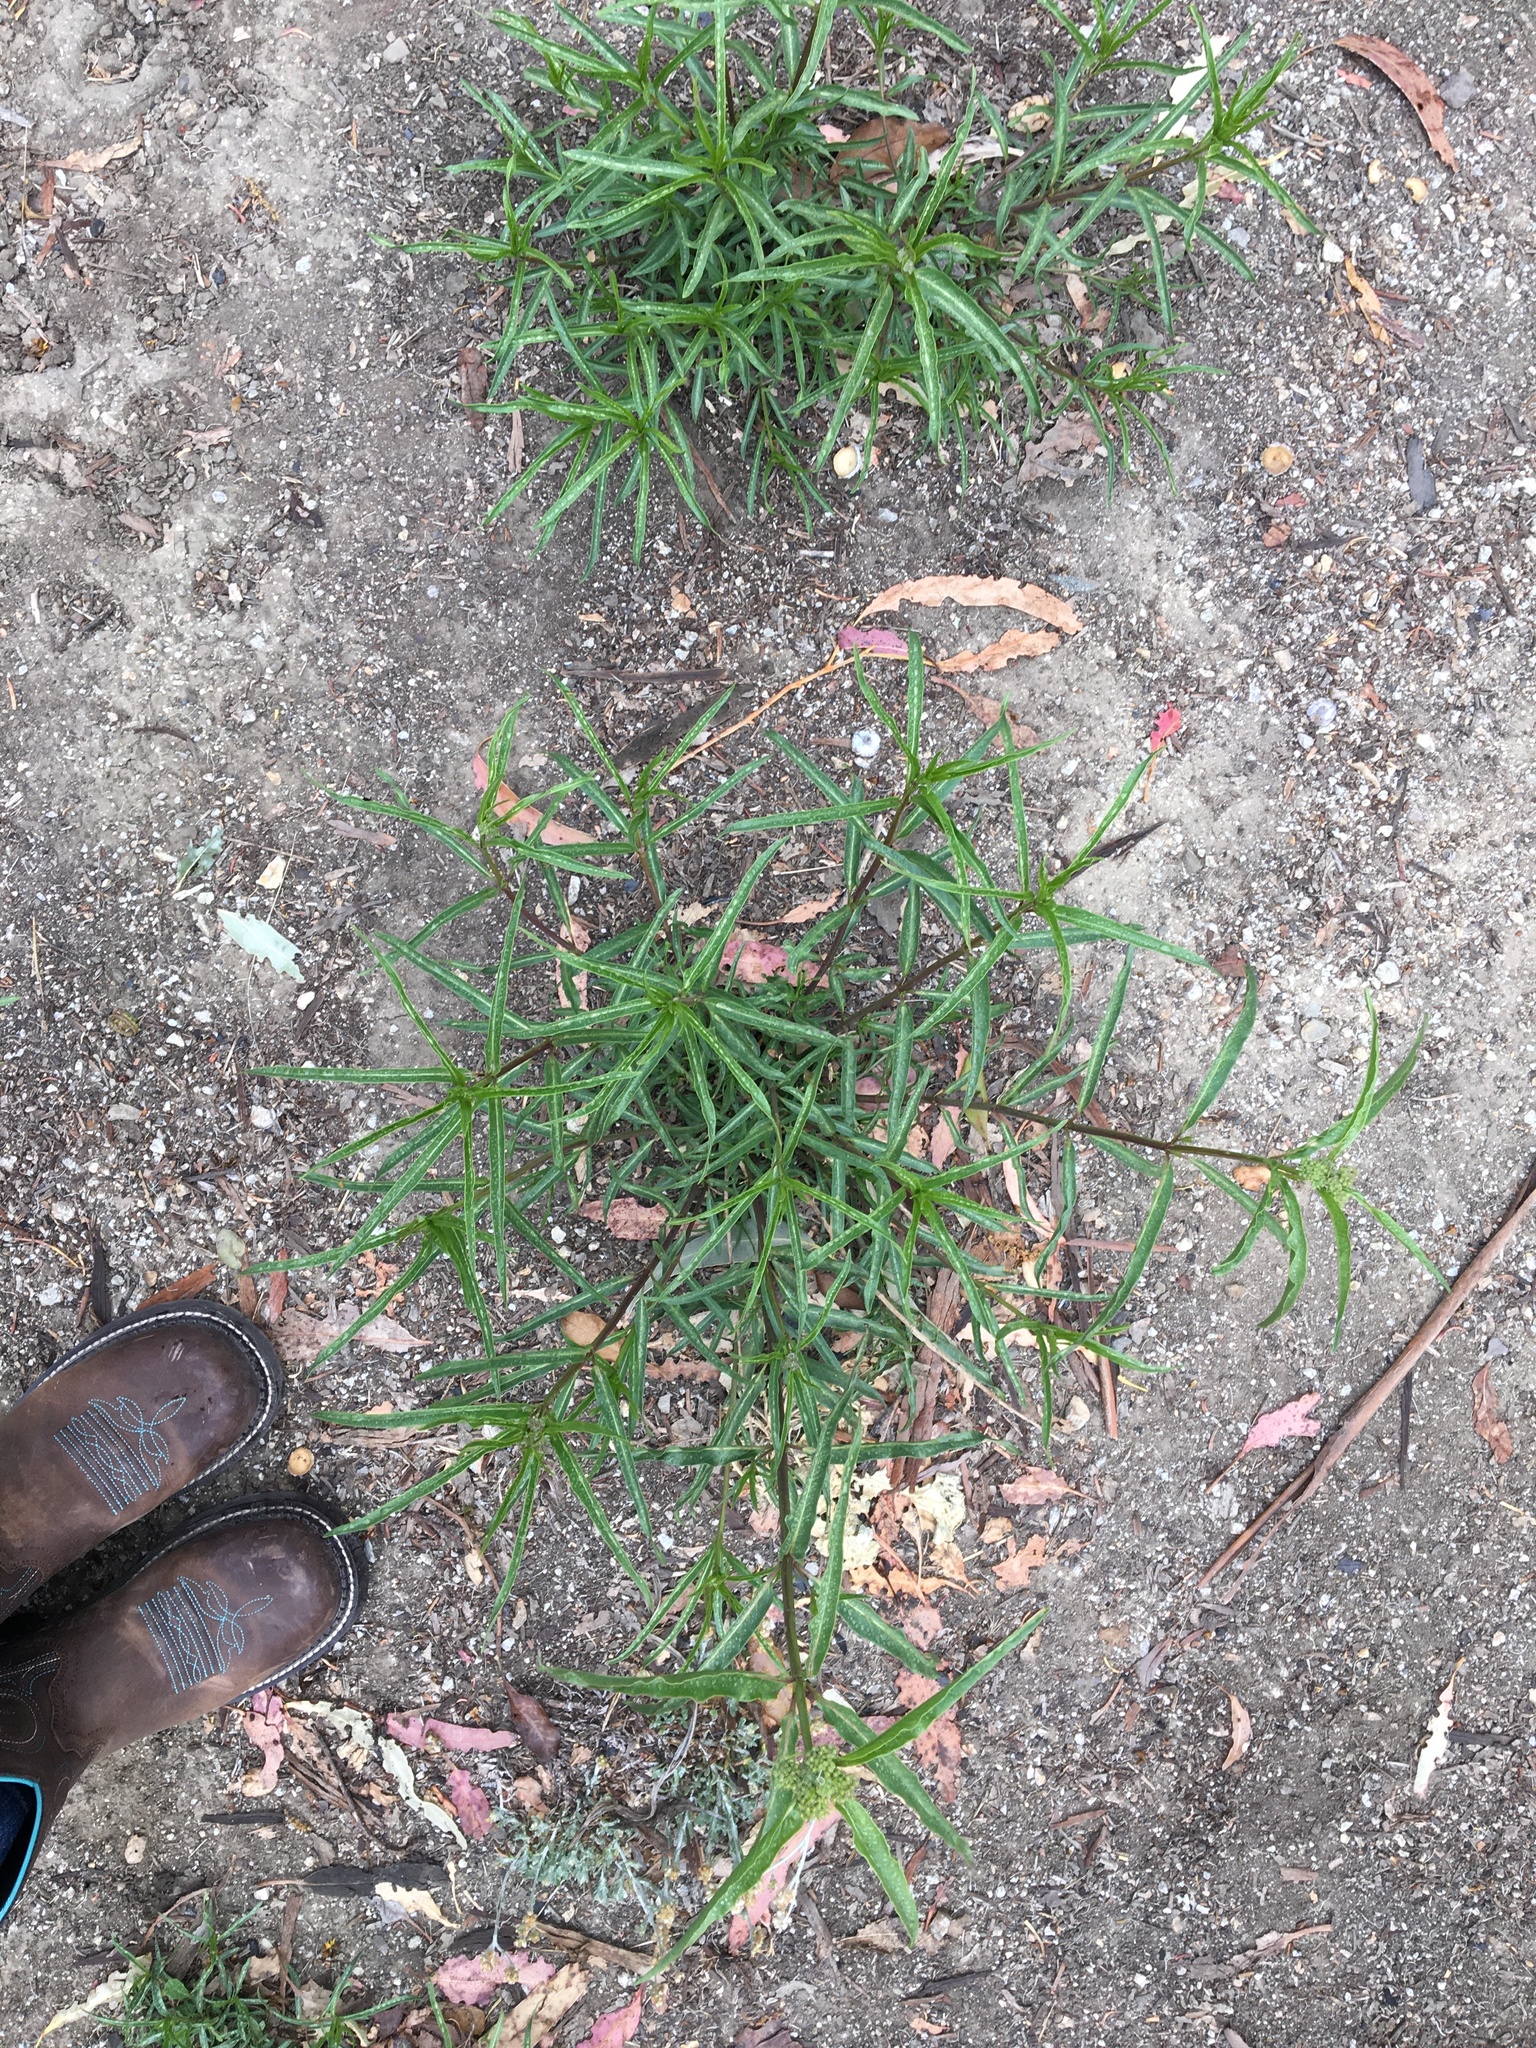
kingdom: Plantae
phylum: Tracheophyta
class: Magnoliopsida
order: Gentianales
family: Apocynaceae
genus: Asclepias
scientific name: Asclepias fascicularis
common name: Mexican milkweed
